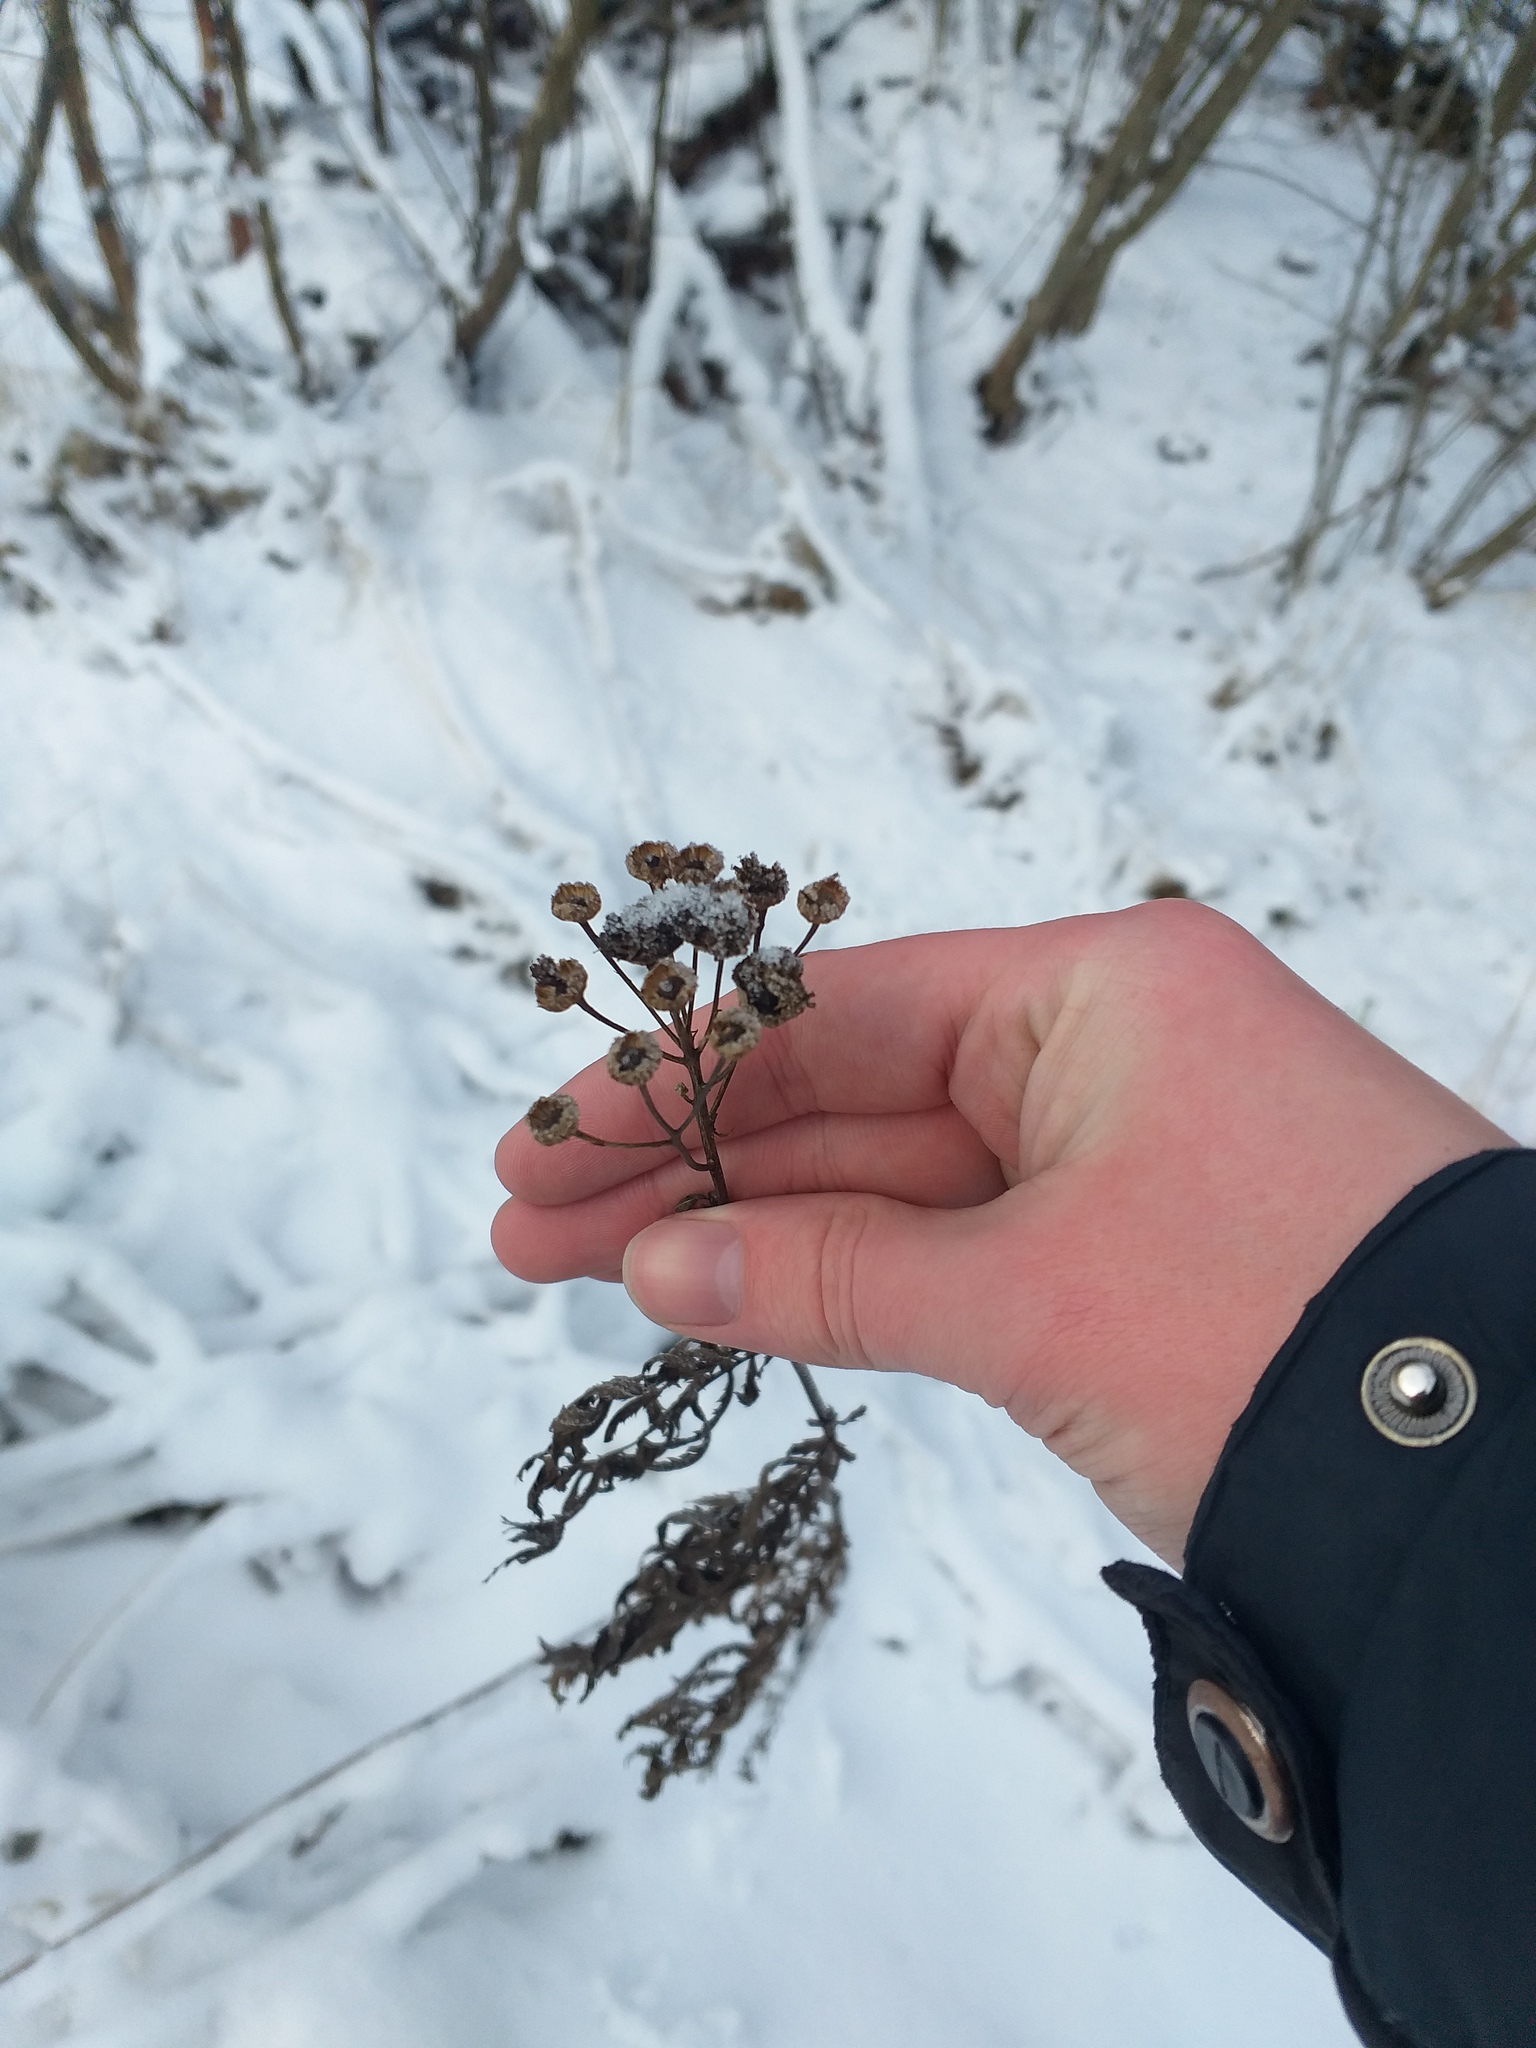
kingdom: Plantae
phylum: Tracheophyta
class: Magnoliopsida
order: Asterales
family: Asteraceae
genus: Tanacetum
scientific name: Tanacetum vulgare
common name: Common tansy
